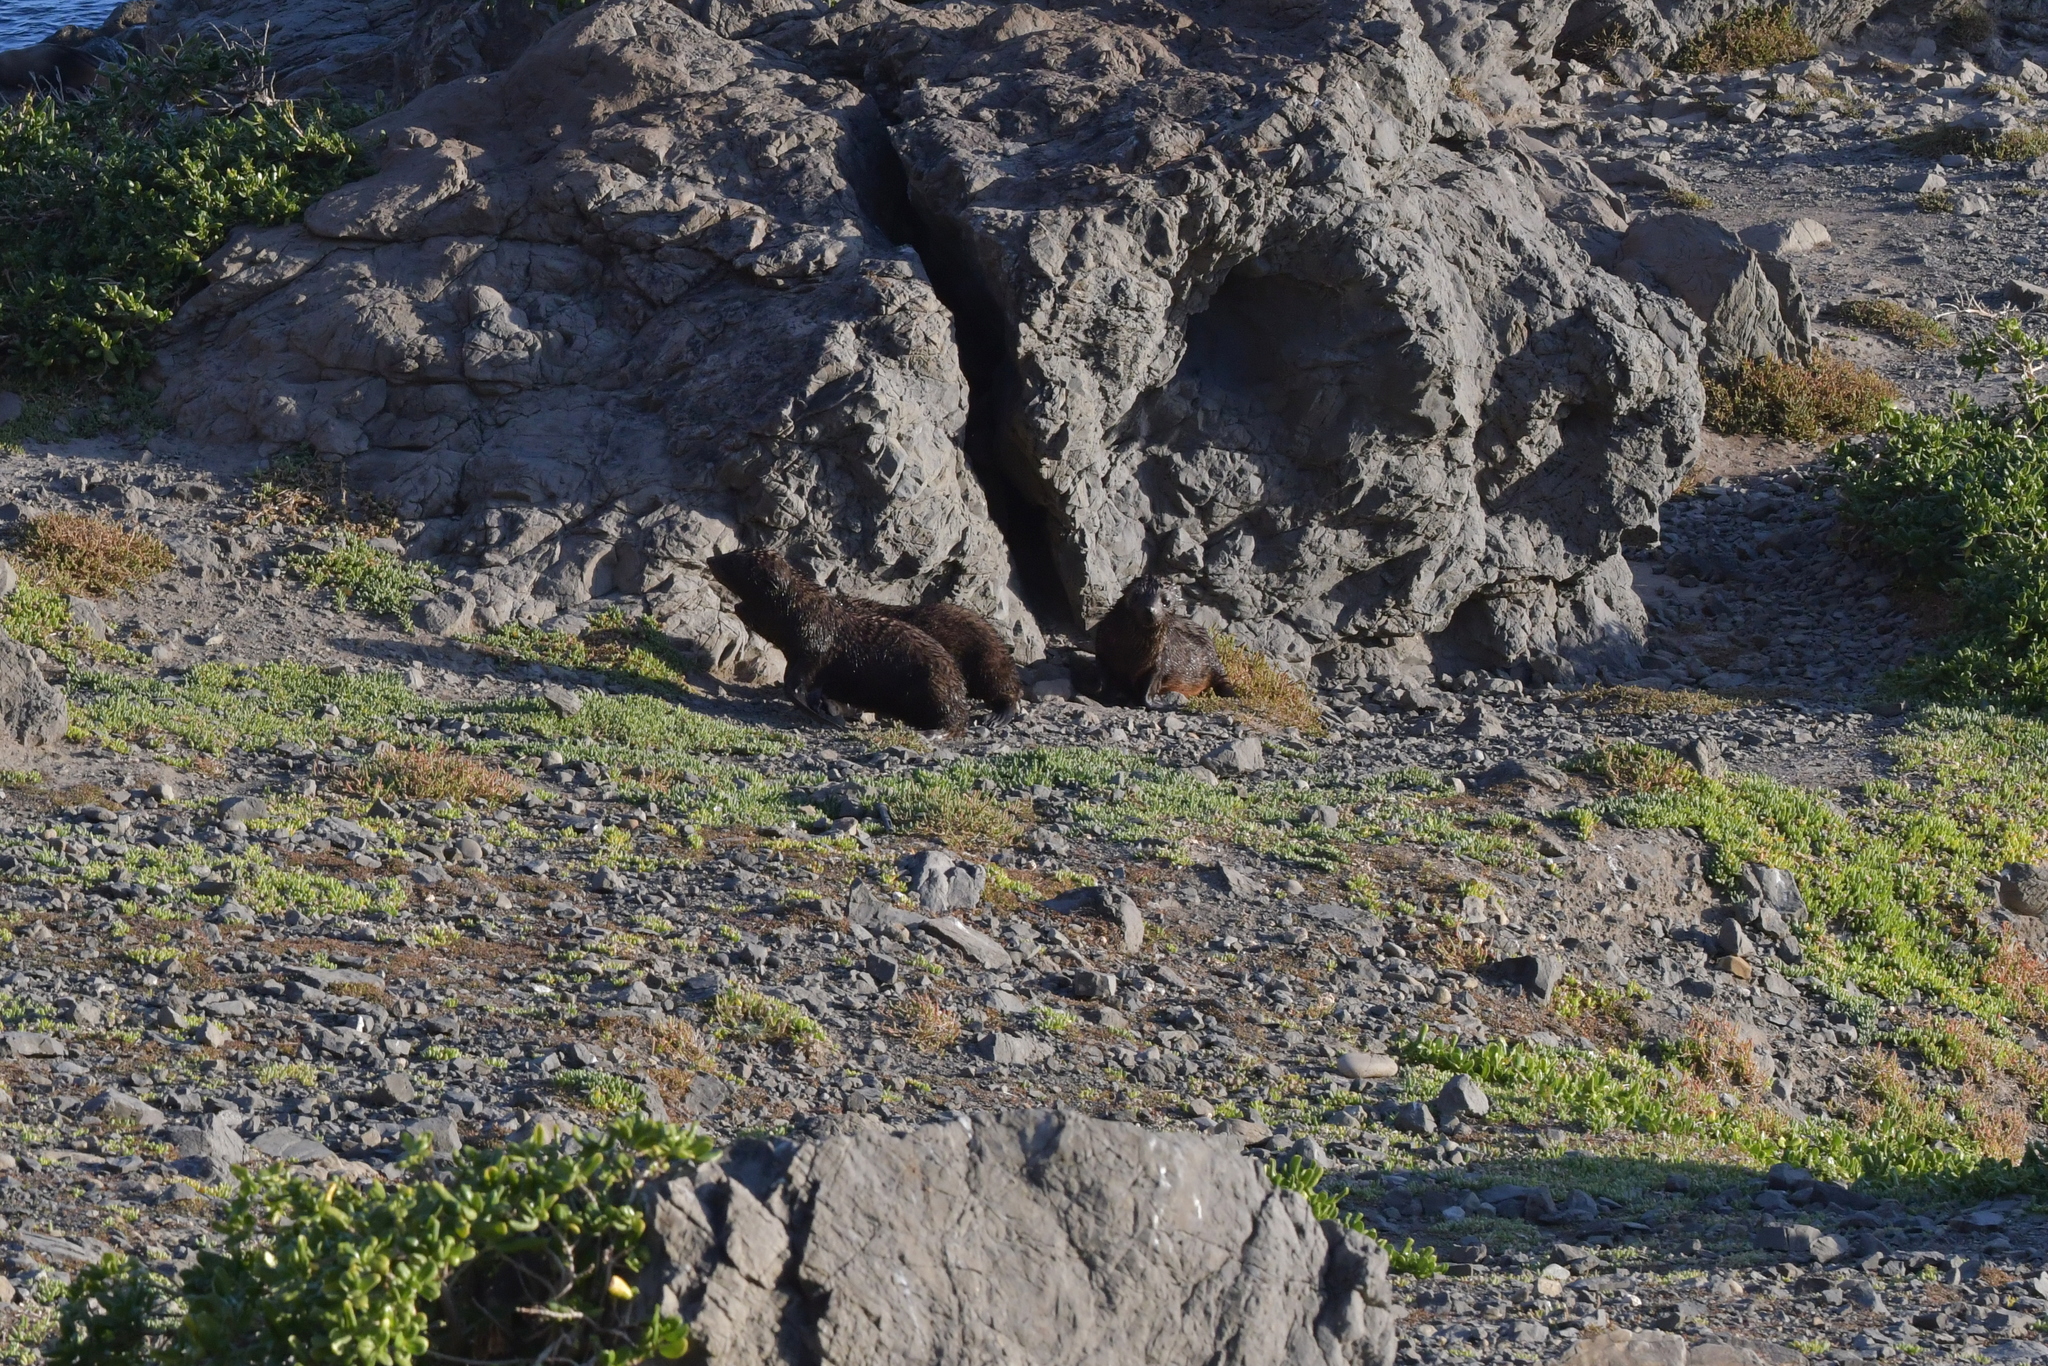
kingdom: Animalia
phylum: Chordata
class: Mammalia
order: Carnivora
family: Otariidae
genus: Arctocephalus
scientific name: Arctocephalus forsteri
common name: New zealand fur seal
